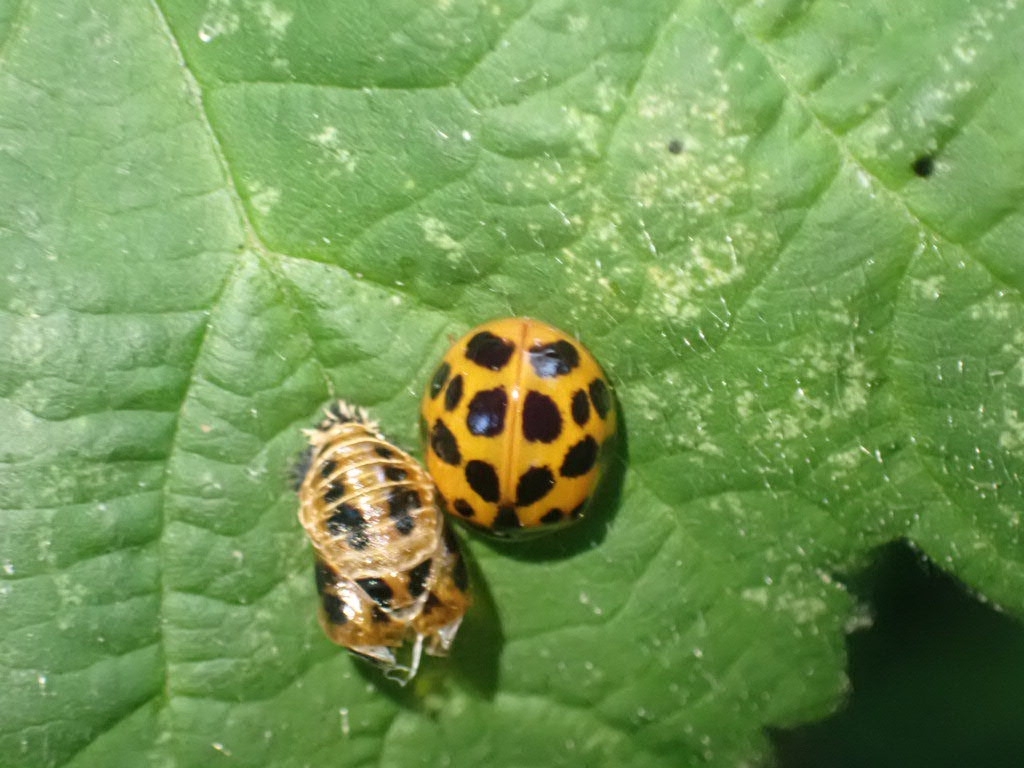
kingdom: Animalia
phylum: Arthropoda
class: Insecta
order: Coleoptera
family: Coccinellidae
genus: Harmonia
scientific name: Harmonia axyridis
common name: Harlequin ladybird
